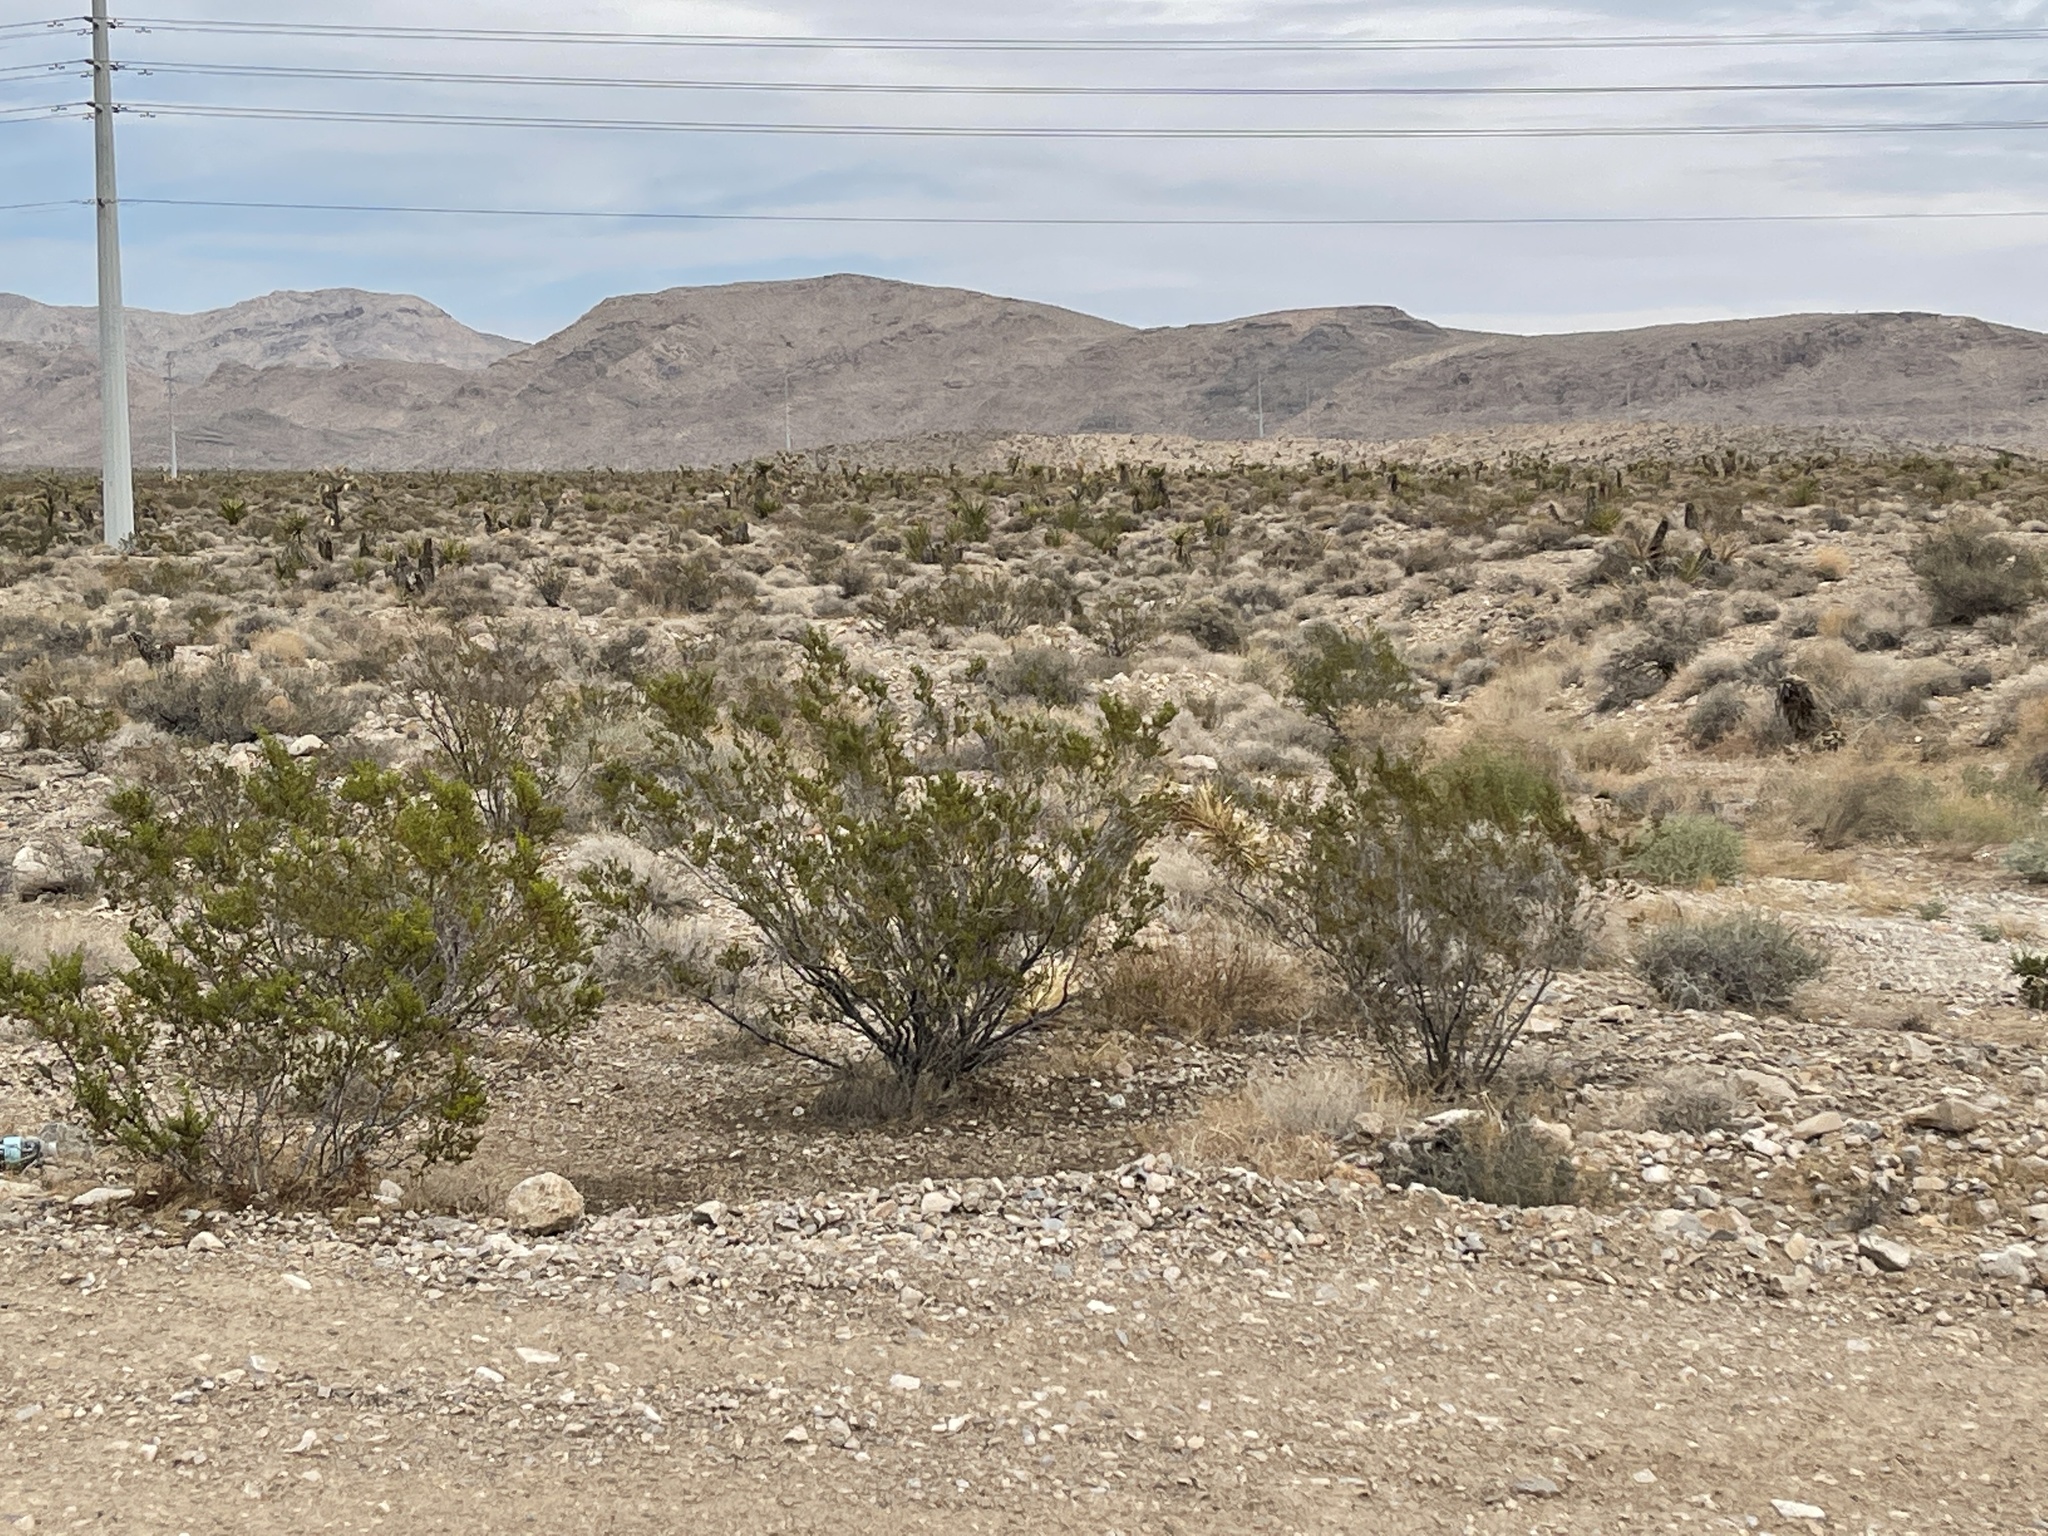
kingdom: Plantae
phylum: Tracheophyta
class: Magnoliopsida
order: Zygophyllales
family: Zygophyllaceae
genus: Larrea
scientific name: Larrea tridentata
